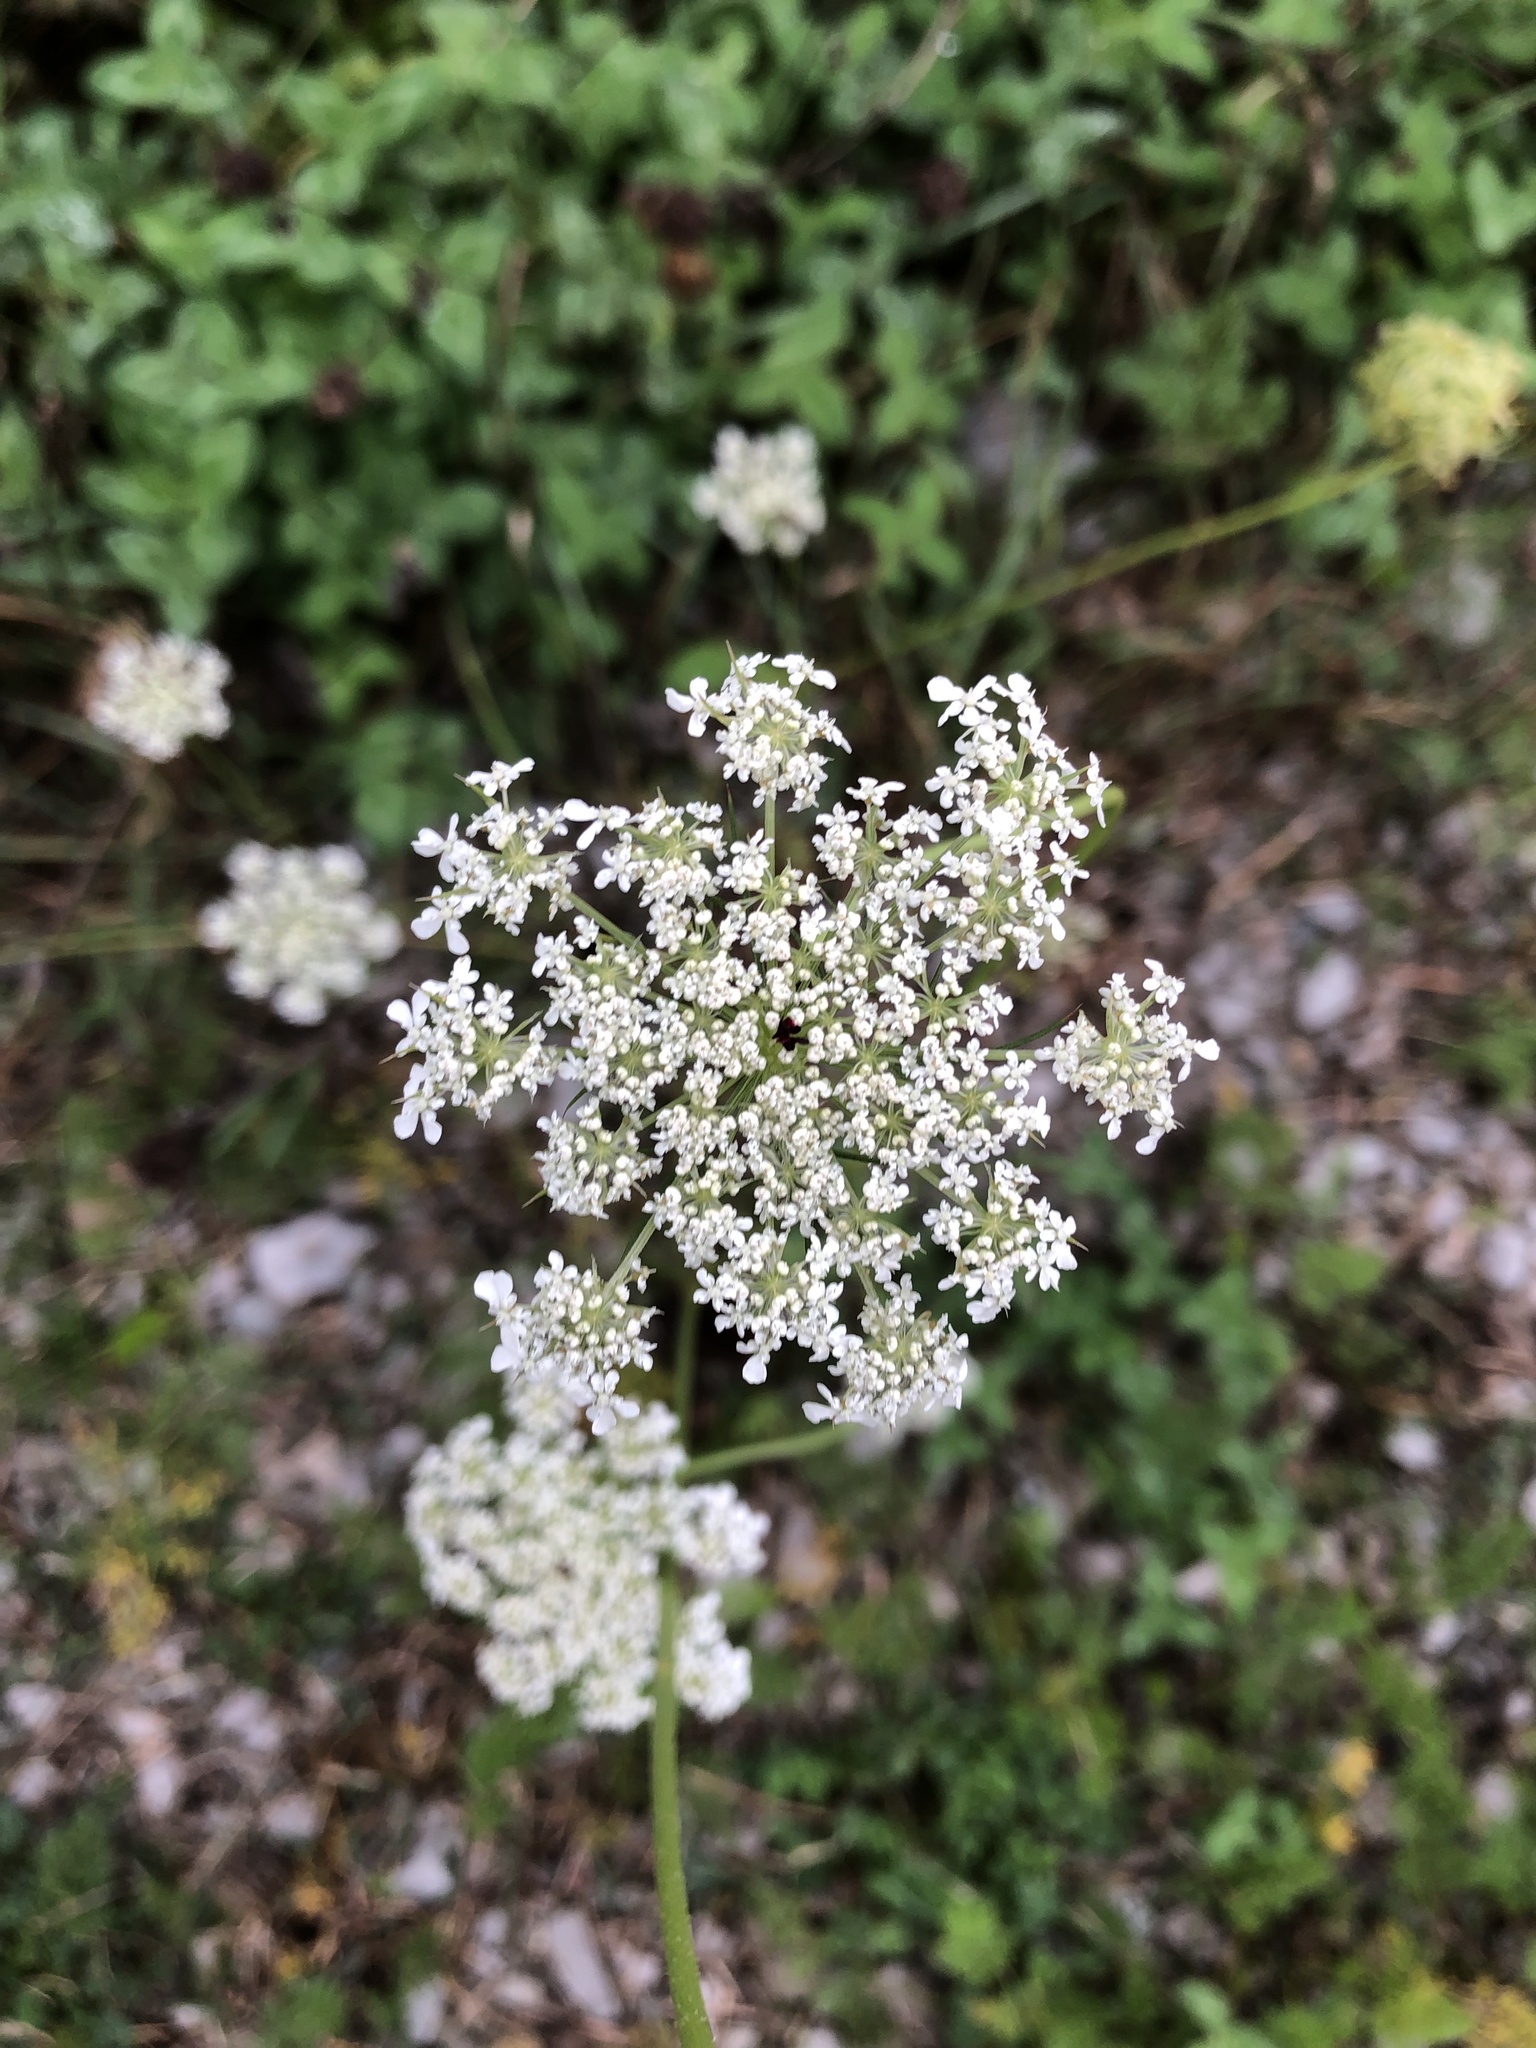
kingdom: Plantae
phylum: Tracheophyta
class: Magnoliopsida
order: Apiales
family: Apiaceae
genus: Daucus
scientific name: Daucus carota
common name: Wild carrot
